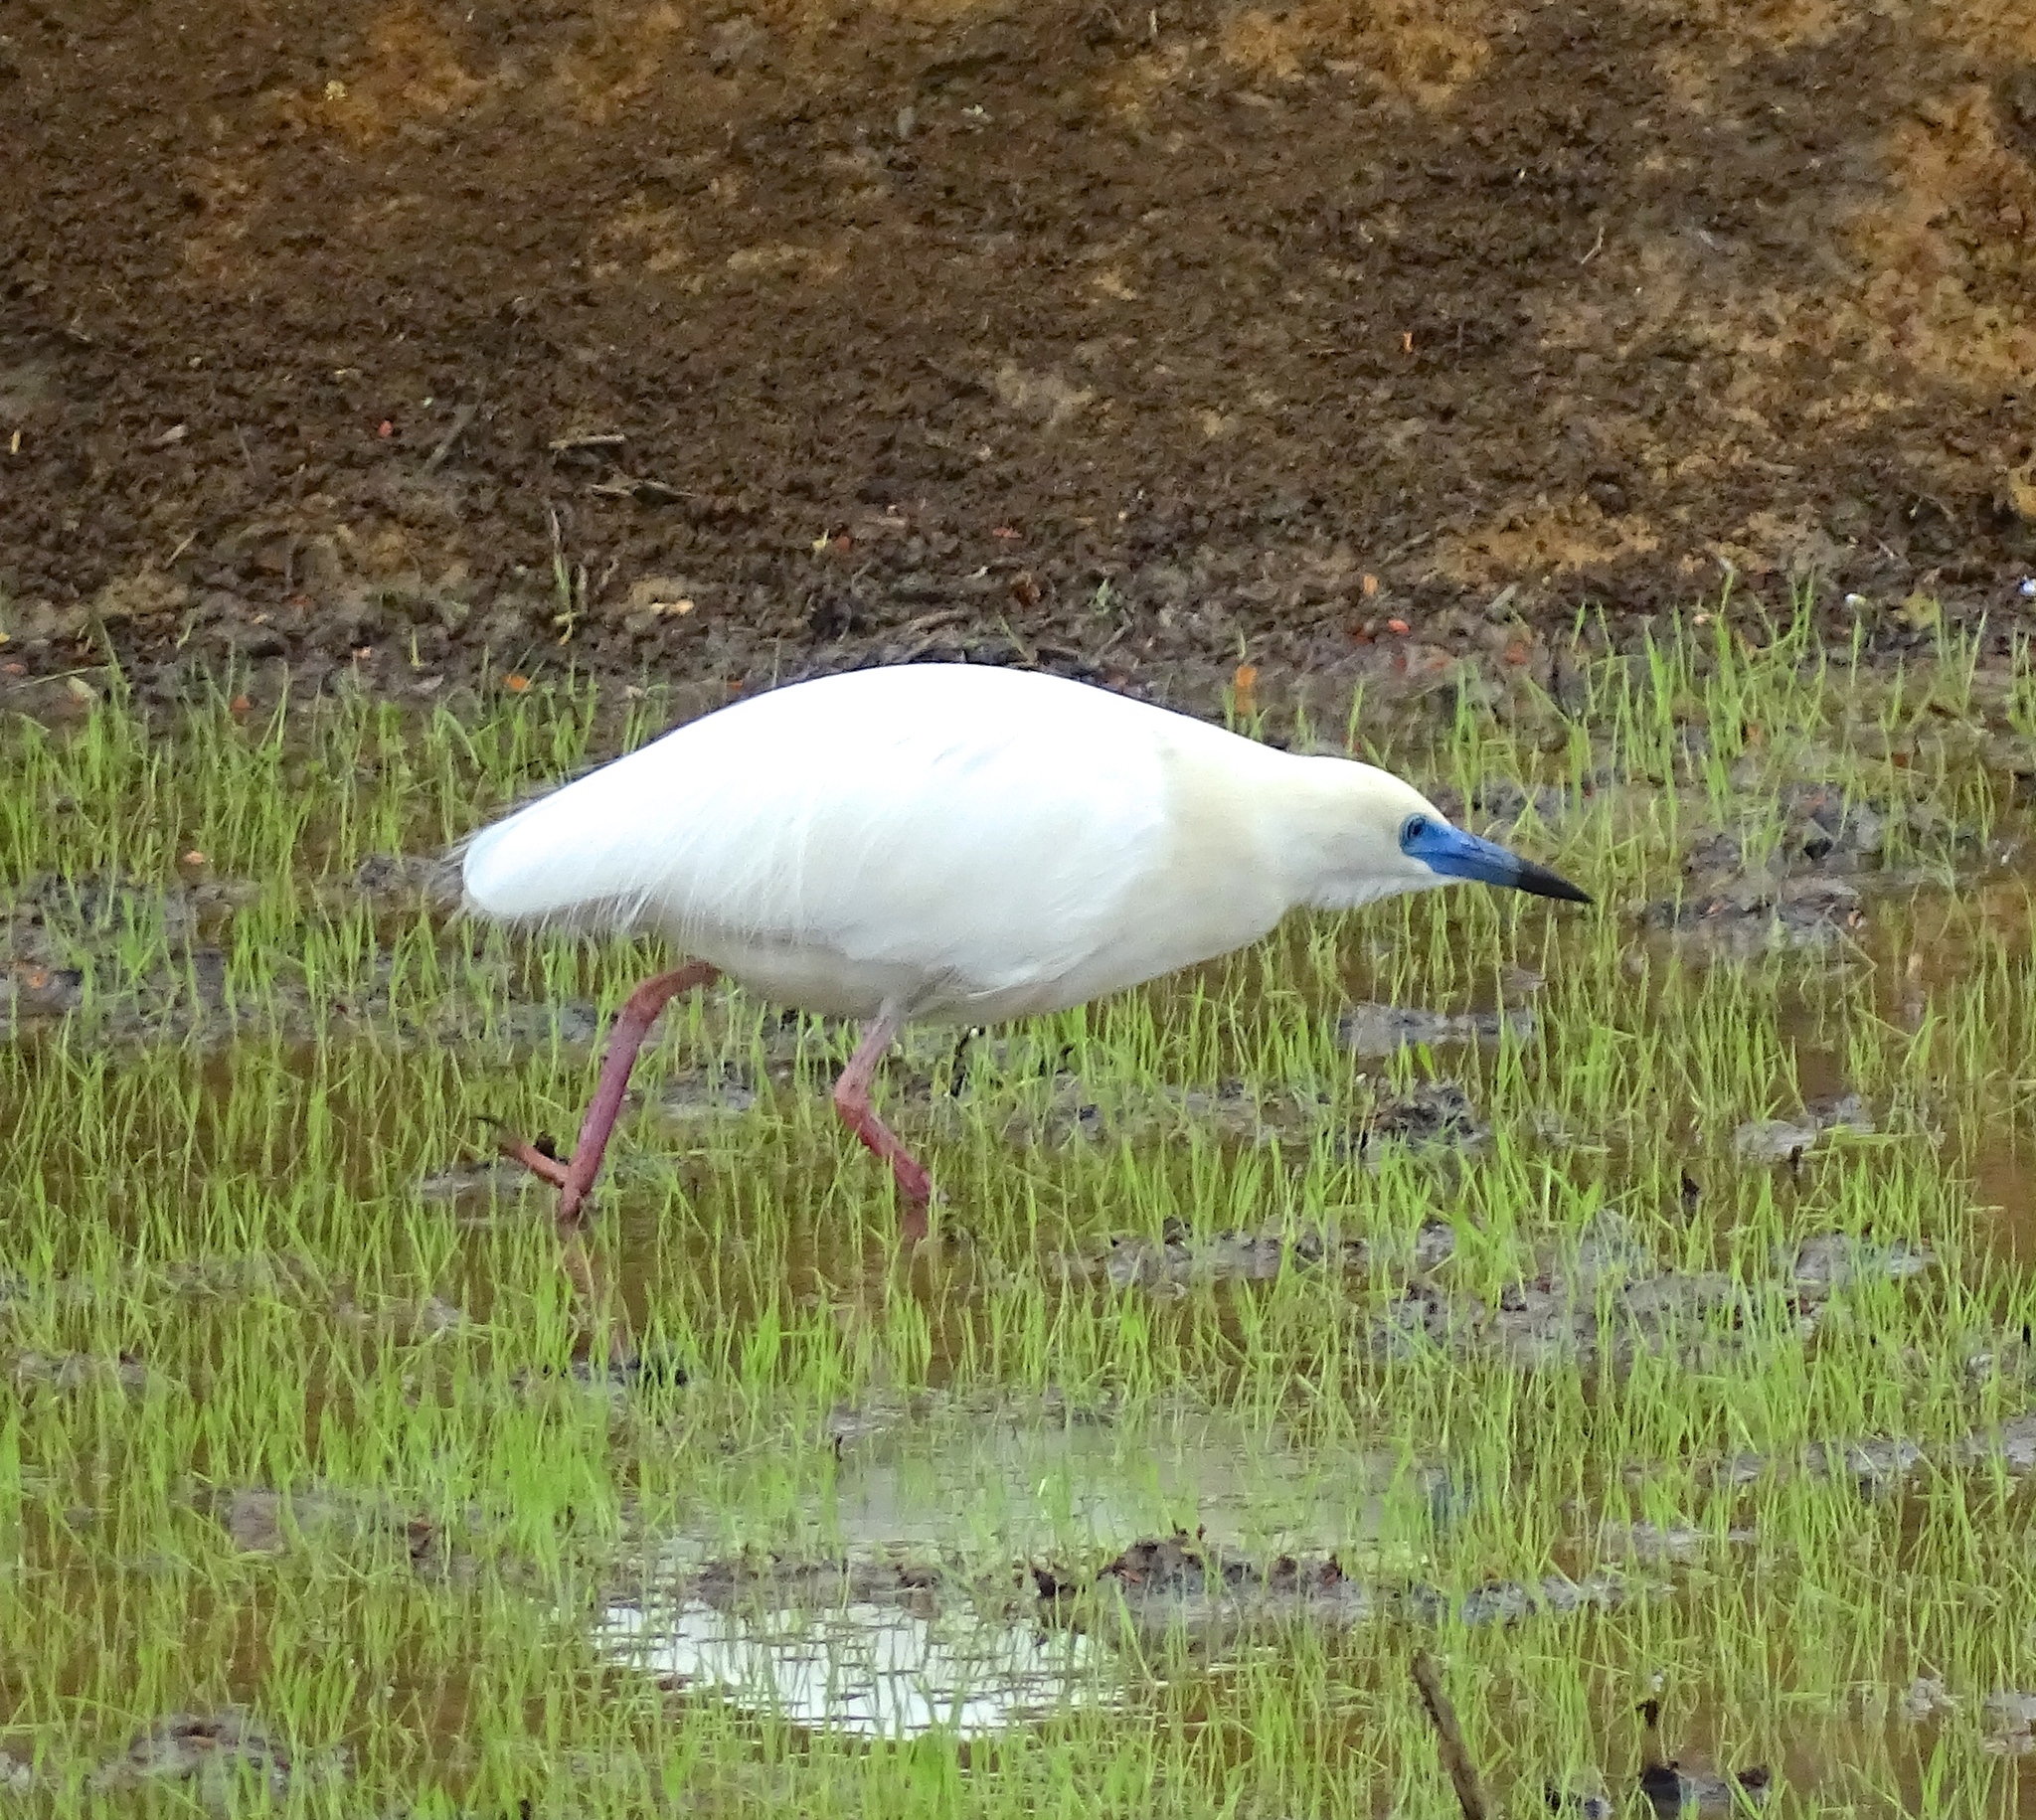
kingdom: Animalia
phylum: Chordata
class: Aves
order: Pelecaniformes
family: Ardeidae
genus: Ardeola
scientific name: Ardeola idae
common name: Malagasy pond heron
